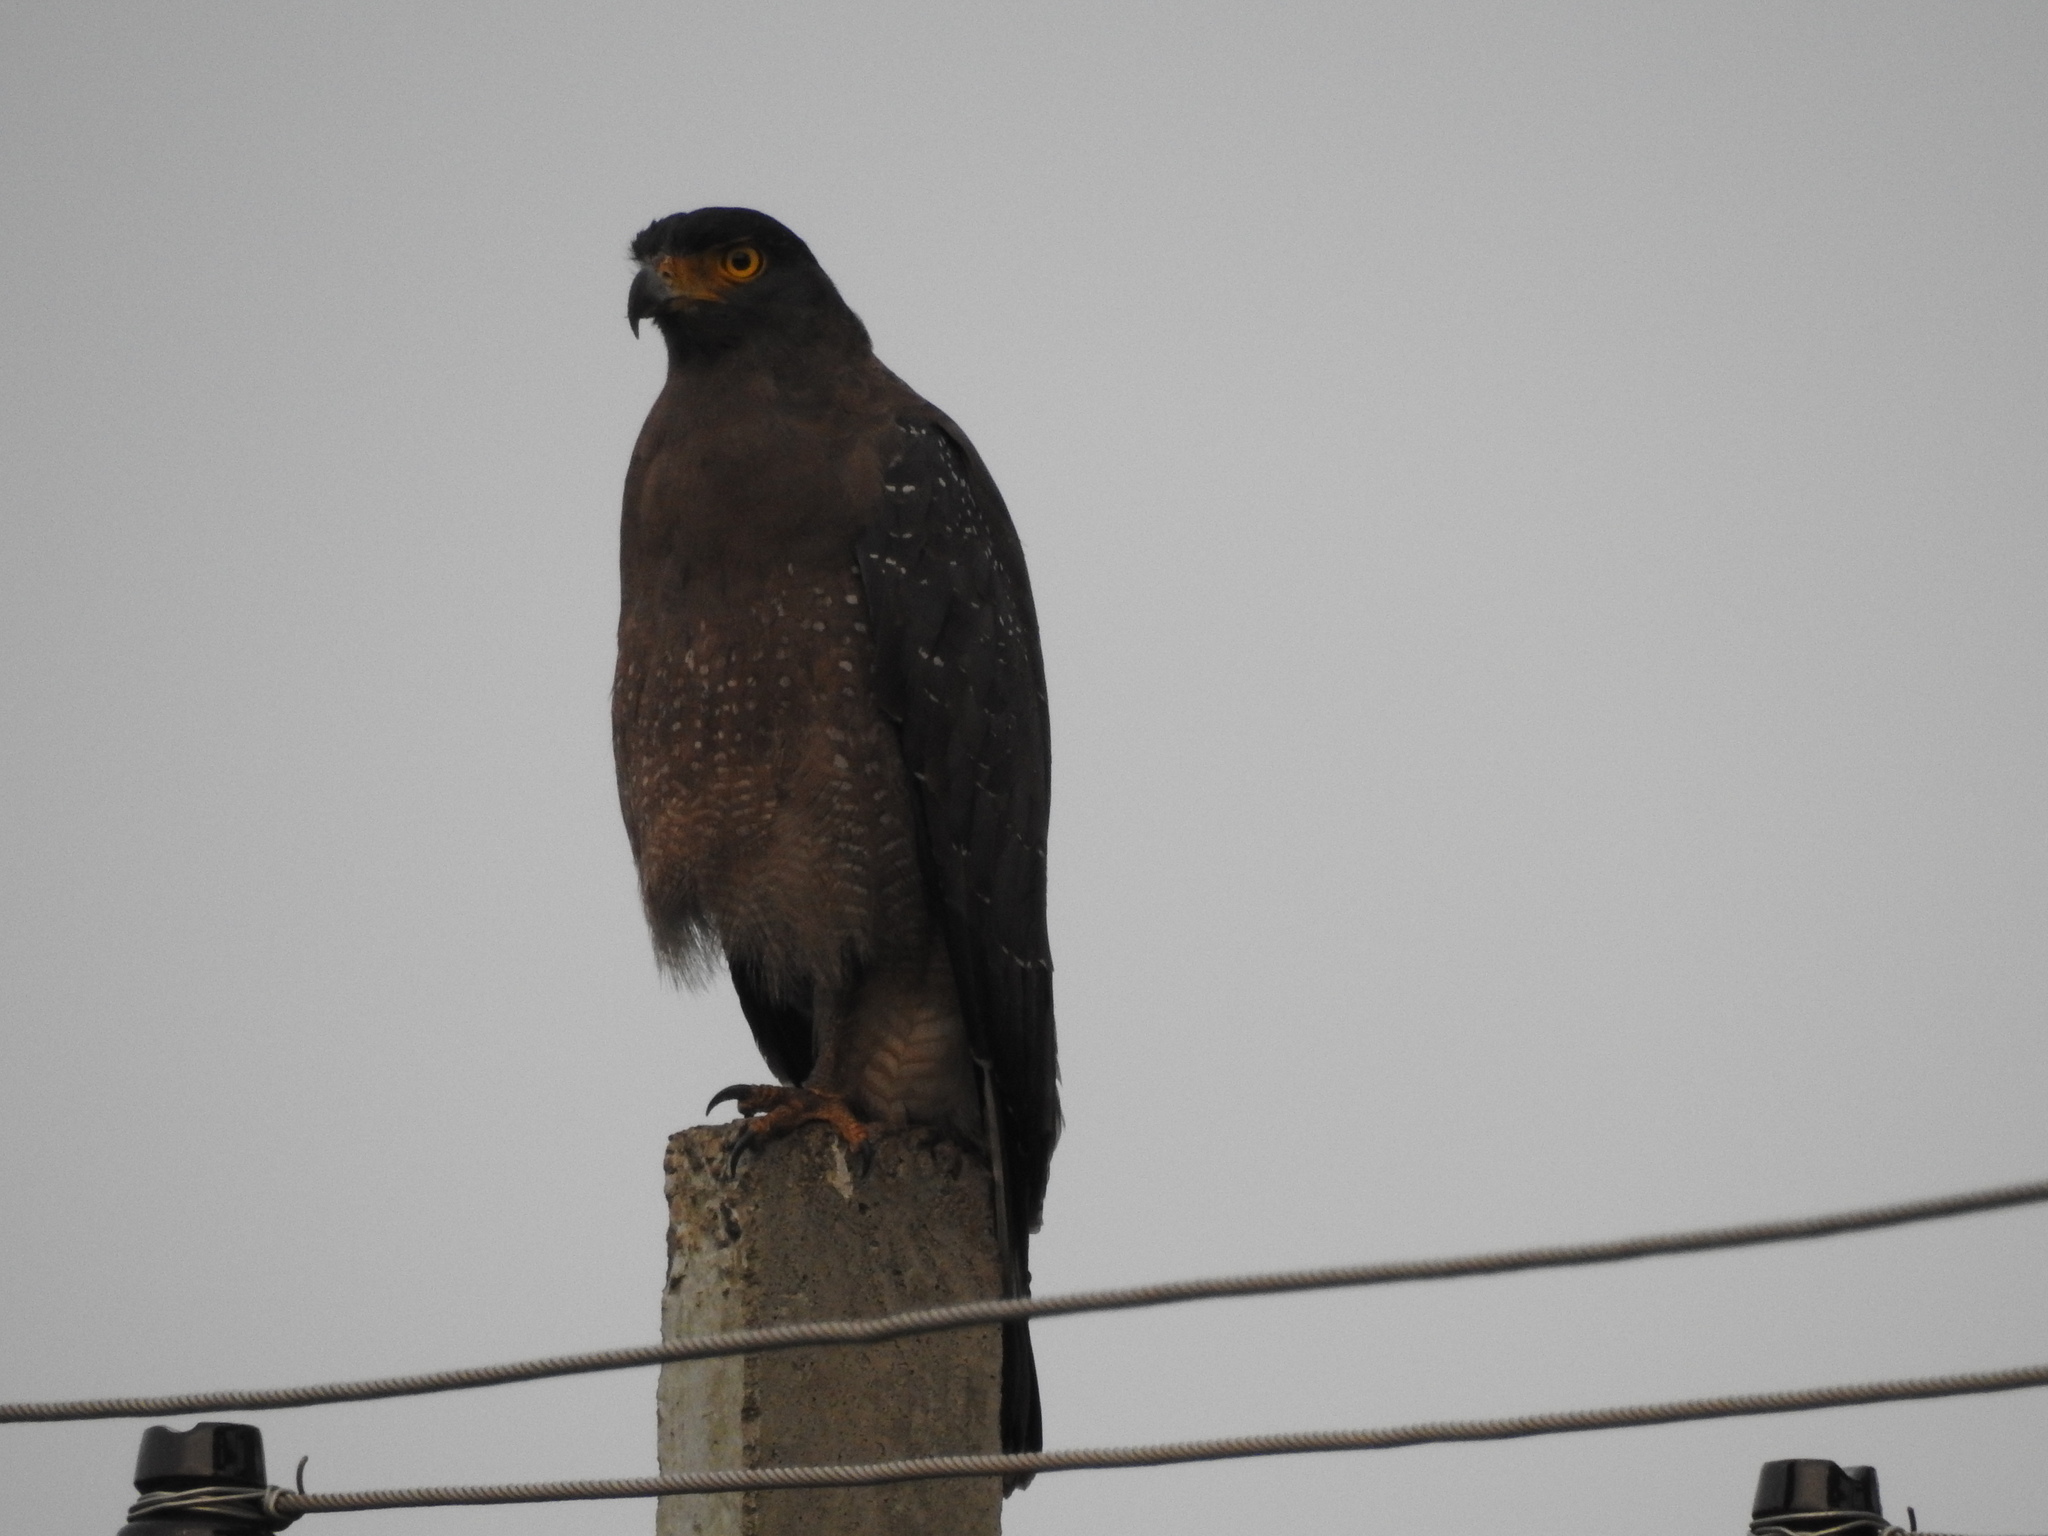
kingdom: Animalia
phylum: Chordata
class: Aves
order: Accipitriformes
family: Accipitridae
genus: Spilornis
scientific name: Spilornis cheela
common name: Crested serpent eagle
